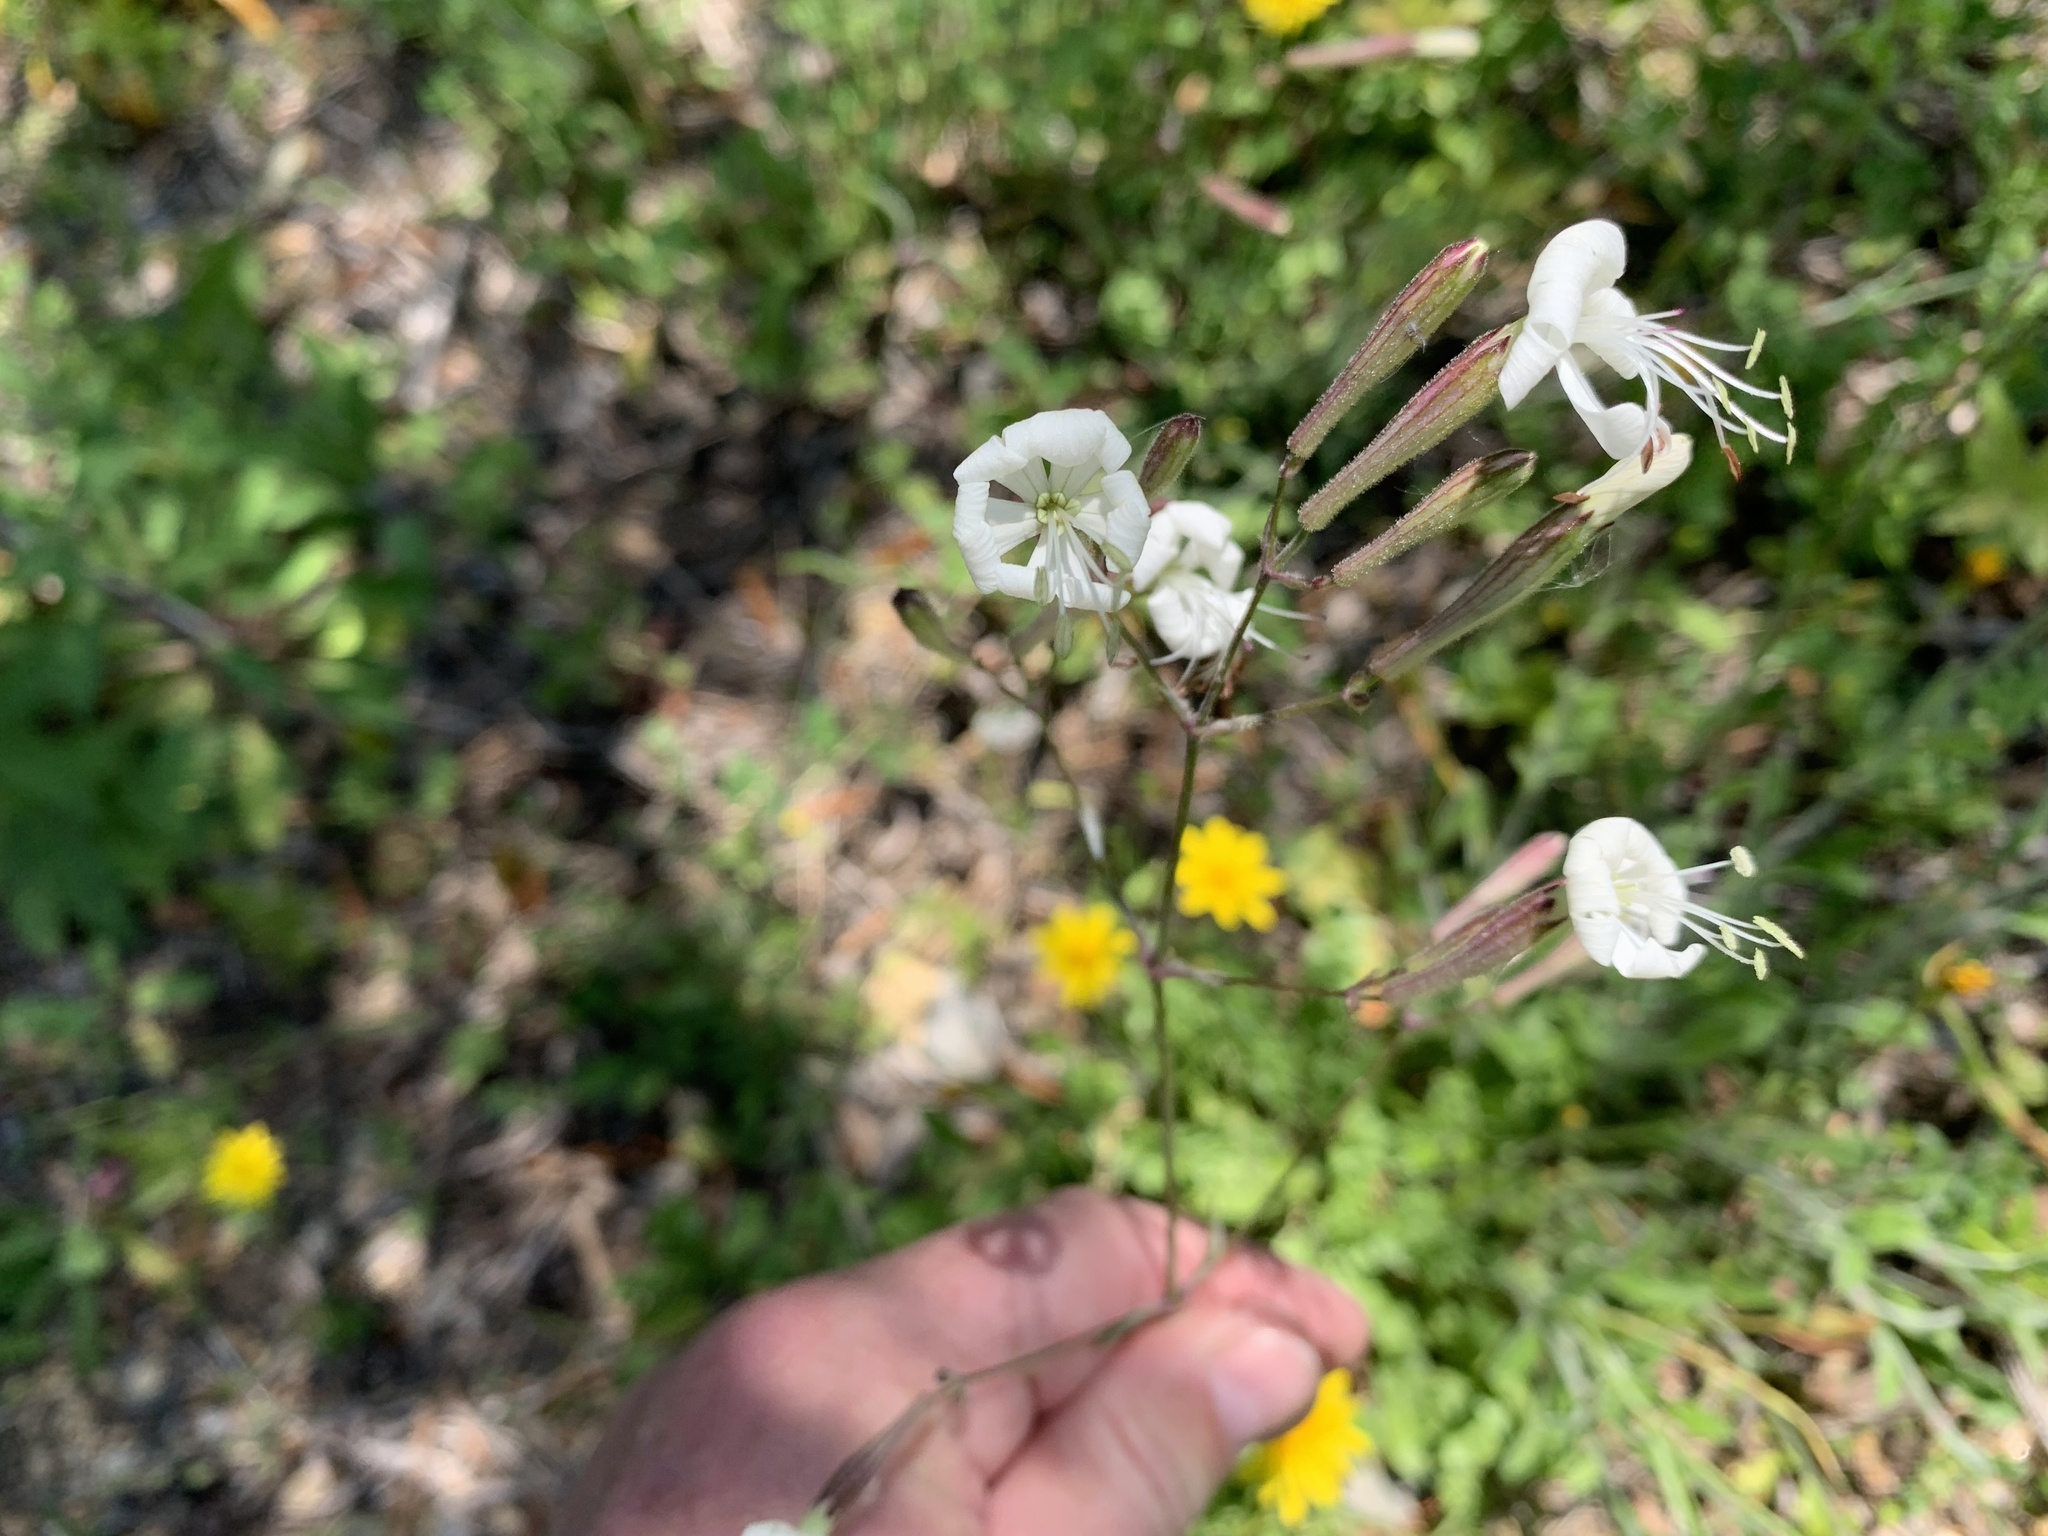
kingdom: Plantae
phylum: Tracheophyta
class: Magnoliopsida
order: Caryophyllales
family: Caryophyllaceae
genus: Silene
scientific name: Silene italica
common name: Italian catchfly
